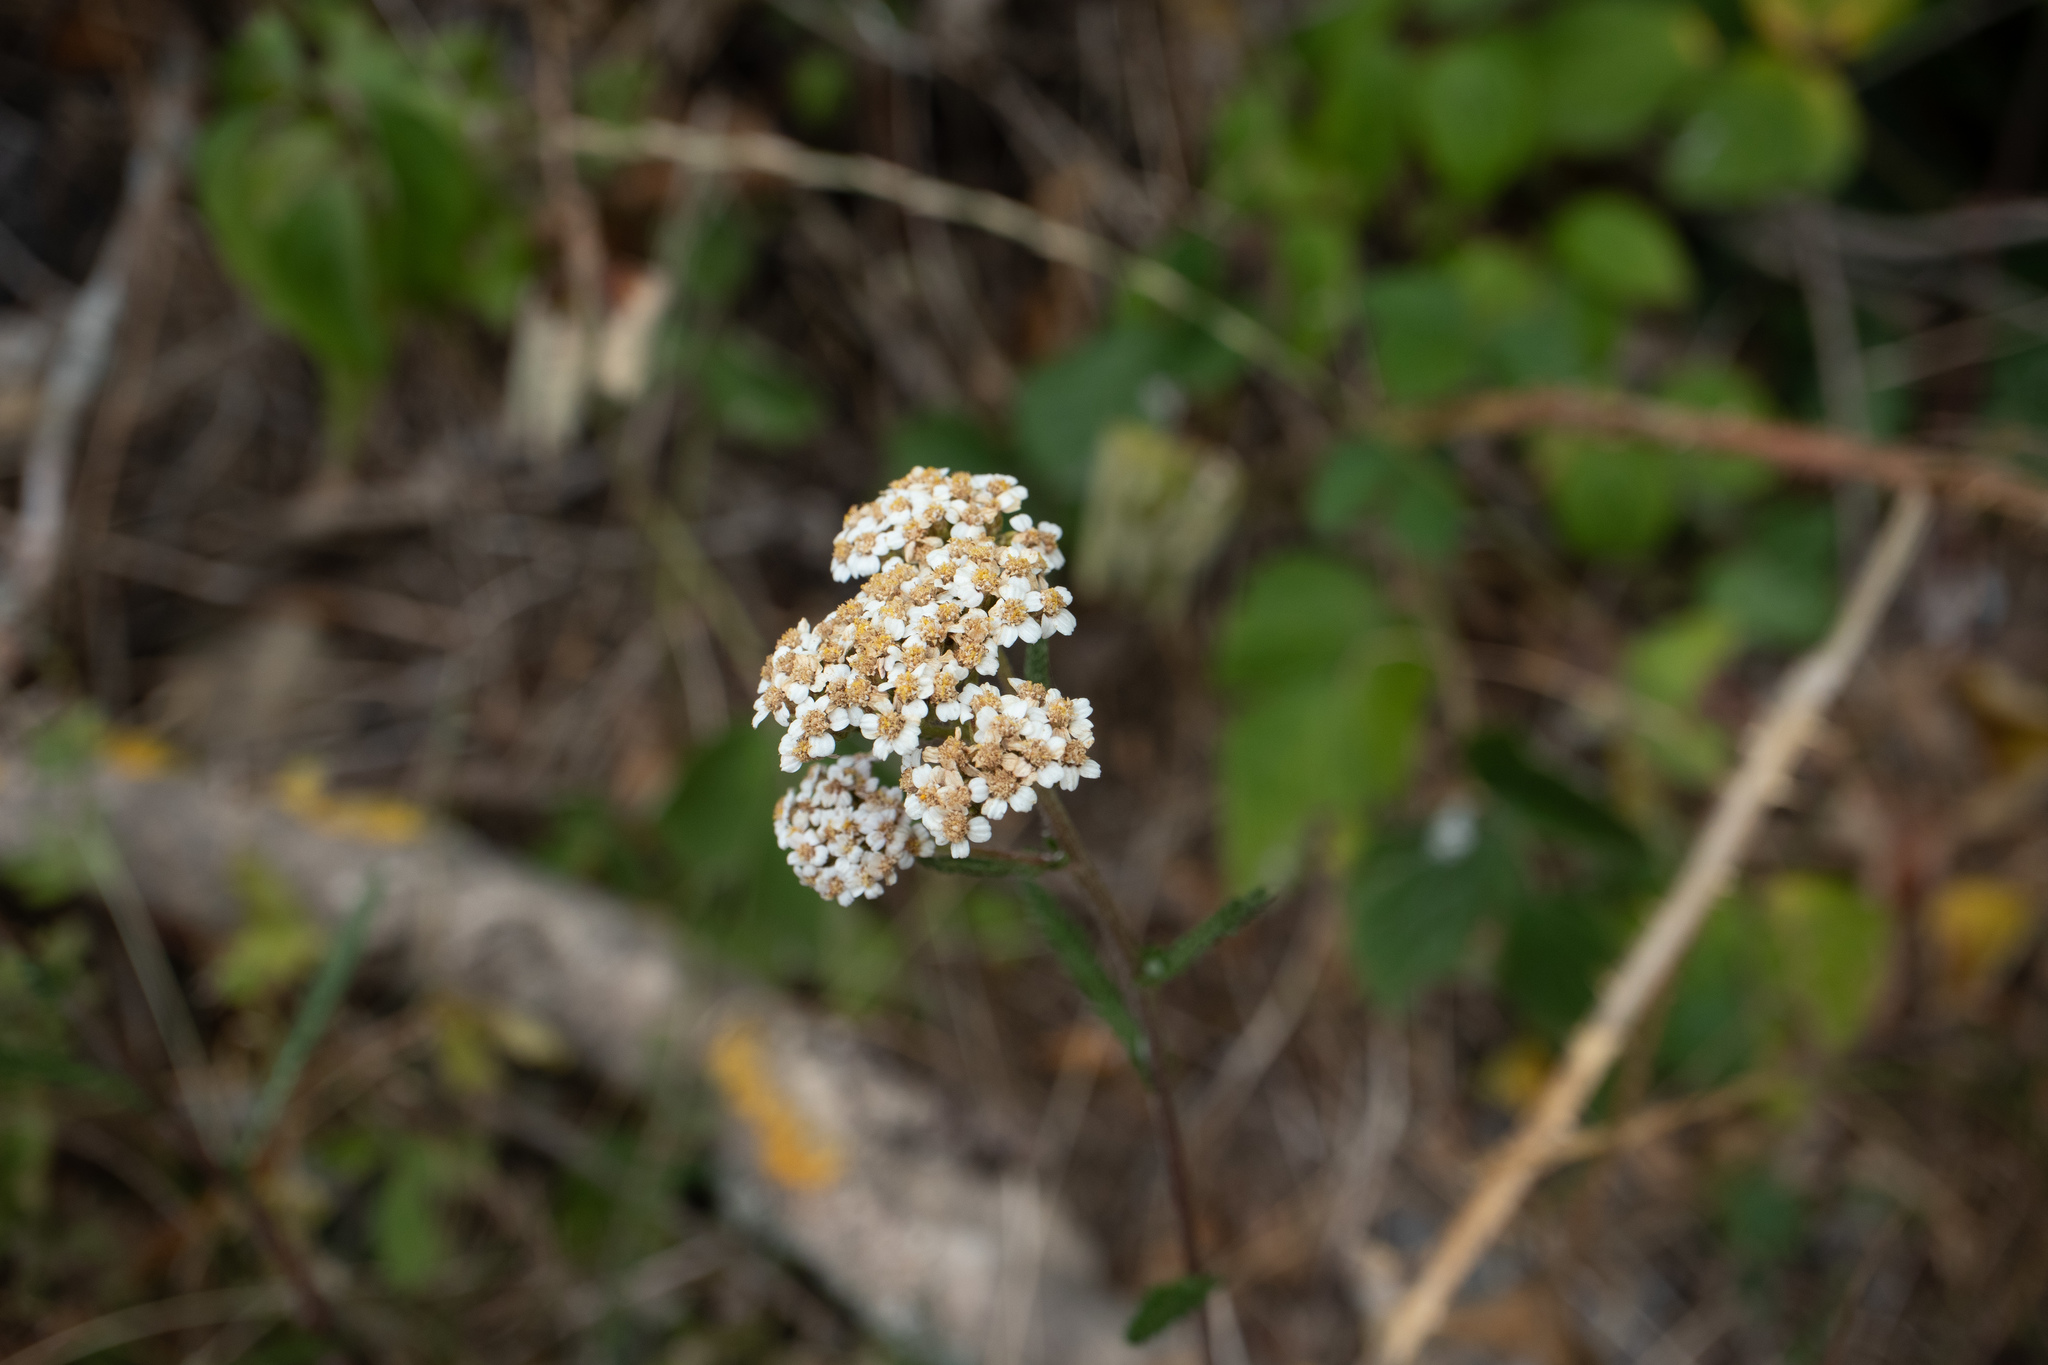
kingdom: Plantae
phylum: Tracheophyta
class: Magnoliopsida
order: Asterales
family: Asteraceae
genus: Achillea
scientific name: Achillea millefolium
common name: Yarrow
